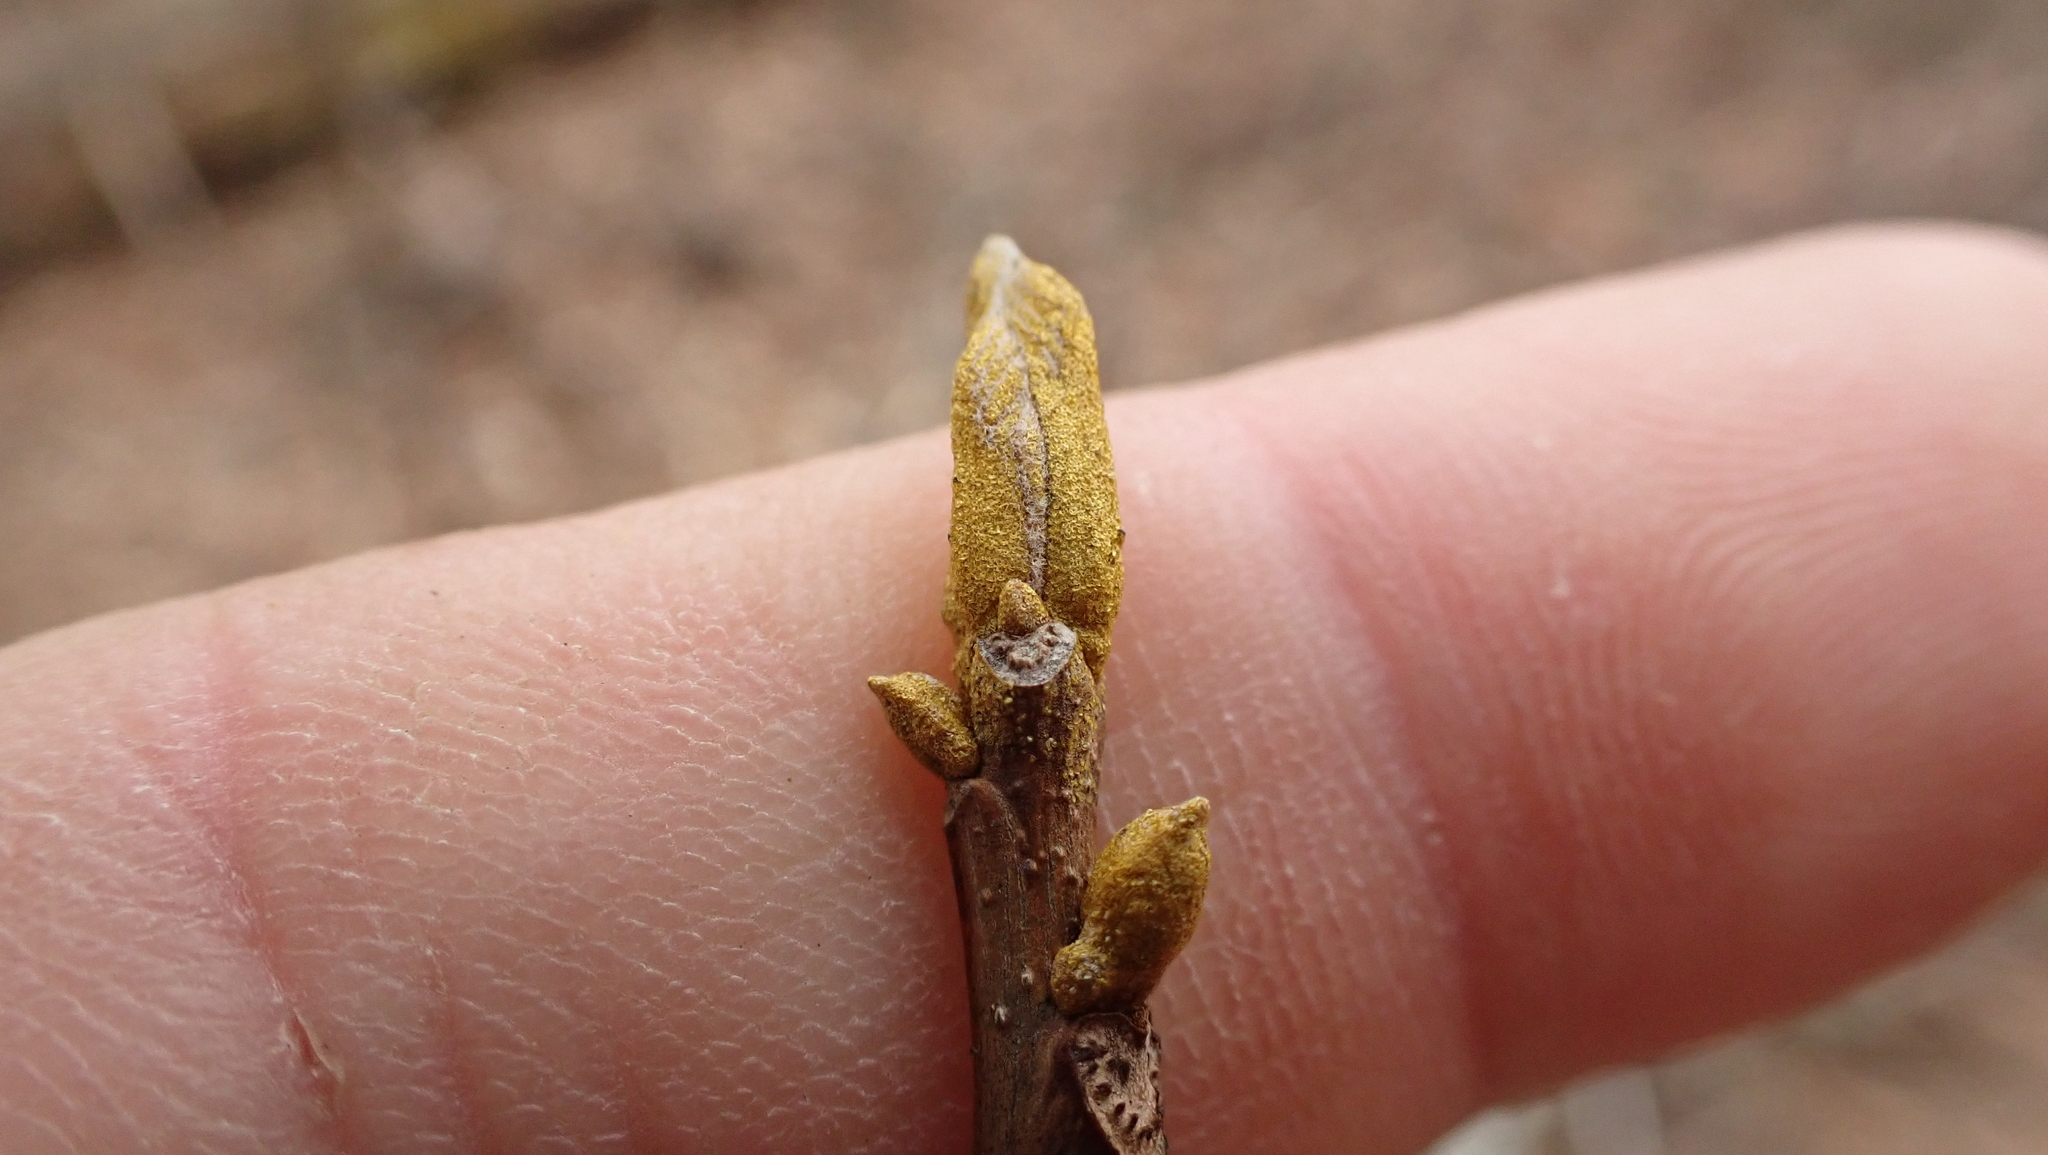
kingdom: Plantae
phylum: Tracheophyta
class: Magnoliopsida
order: Fagales
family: Juglandaceae
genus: Carya
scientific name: Carya cordiformis
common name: Bitternut hickory
